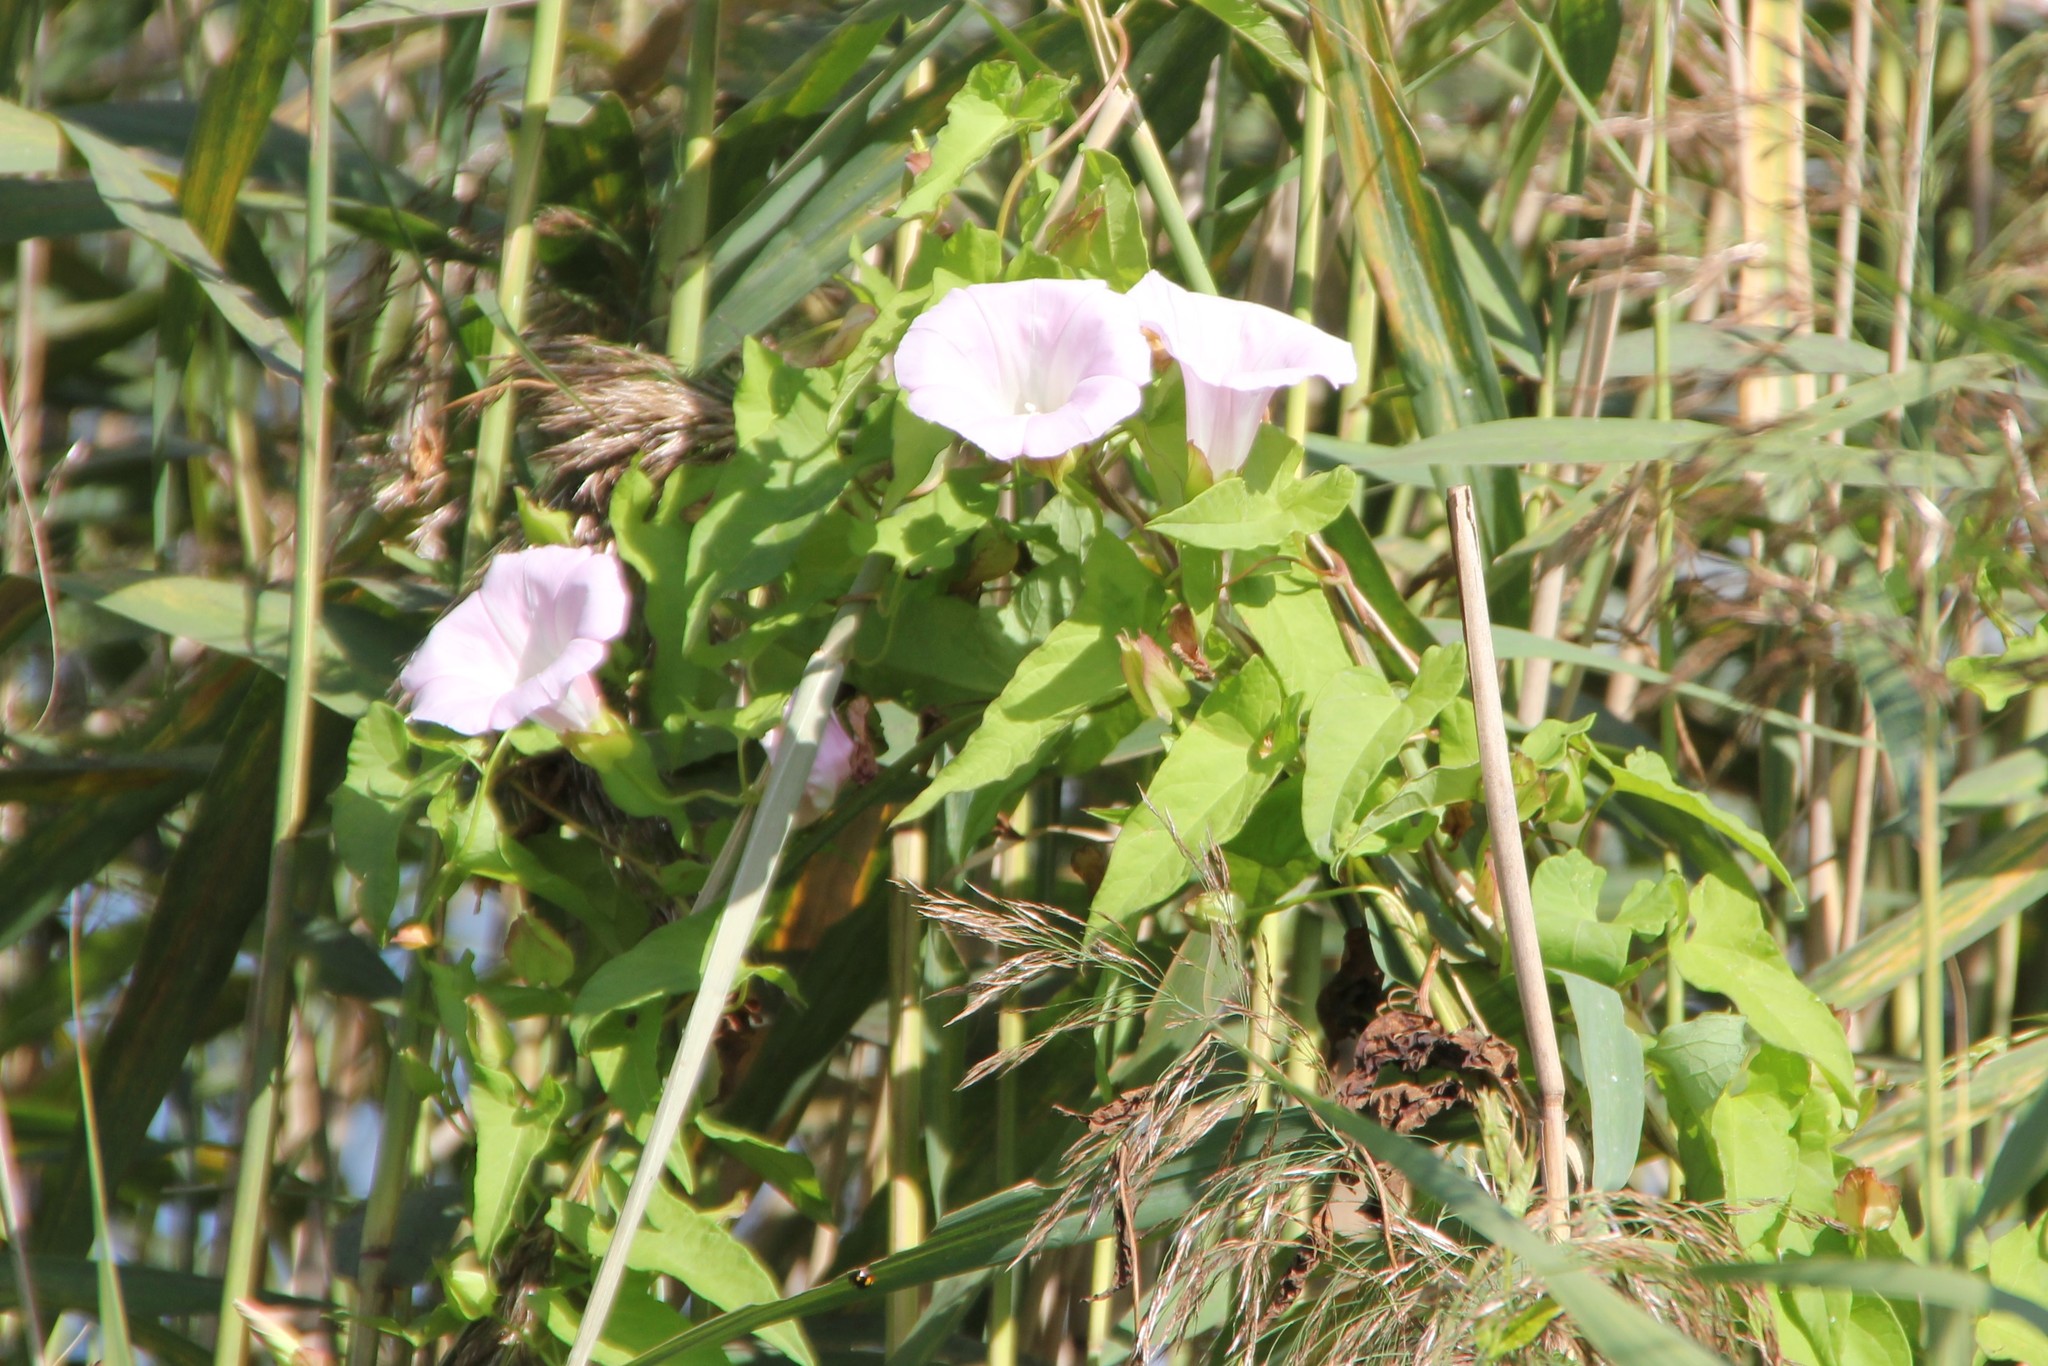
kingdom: Plantae
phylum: Tracheophyta
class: Magnoliopsida
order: Solanales
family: Convolvulaceae
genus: Calystegia
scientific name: Calystegia sepium
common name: Hedge bindweed
